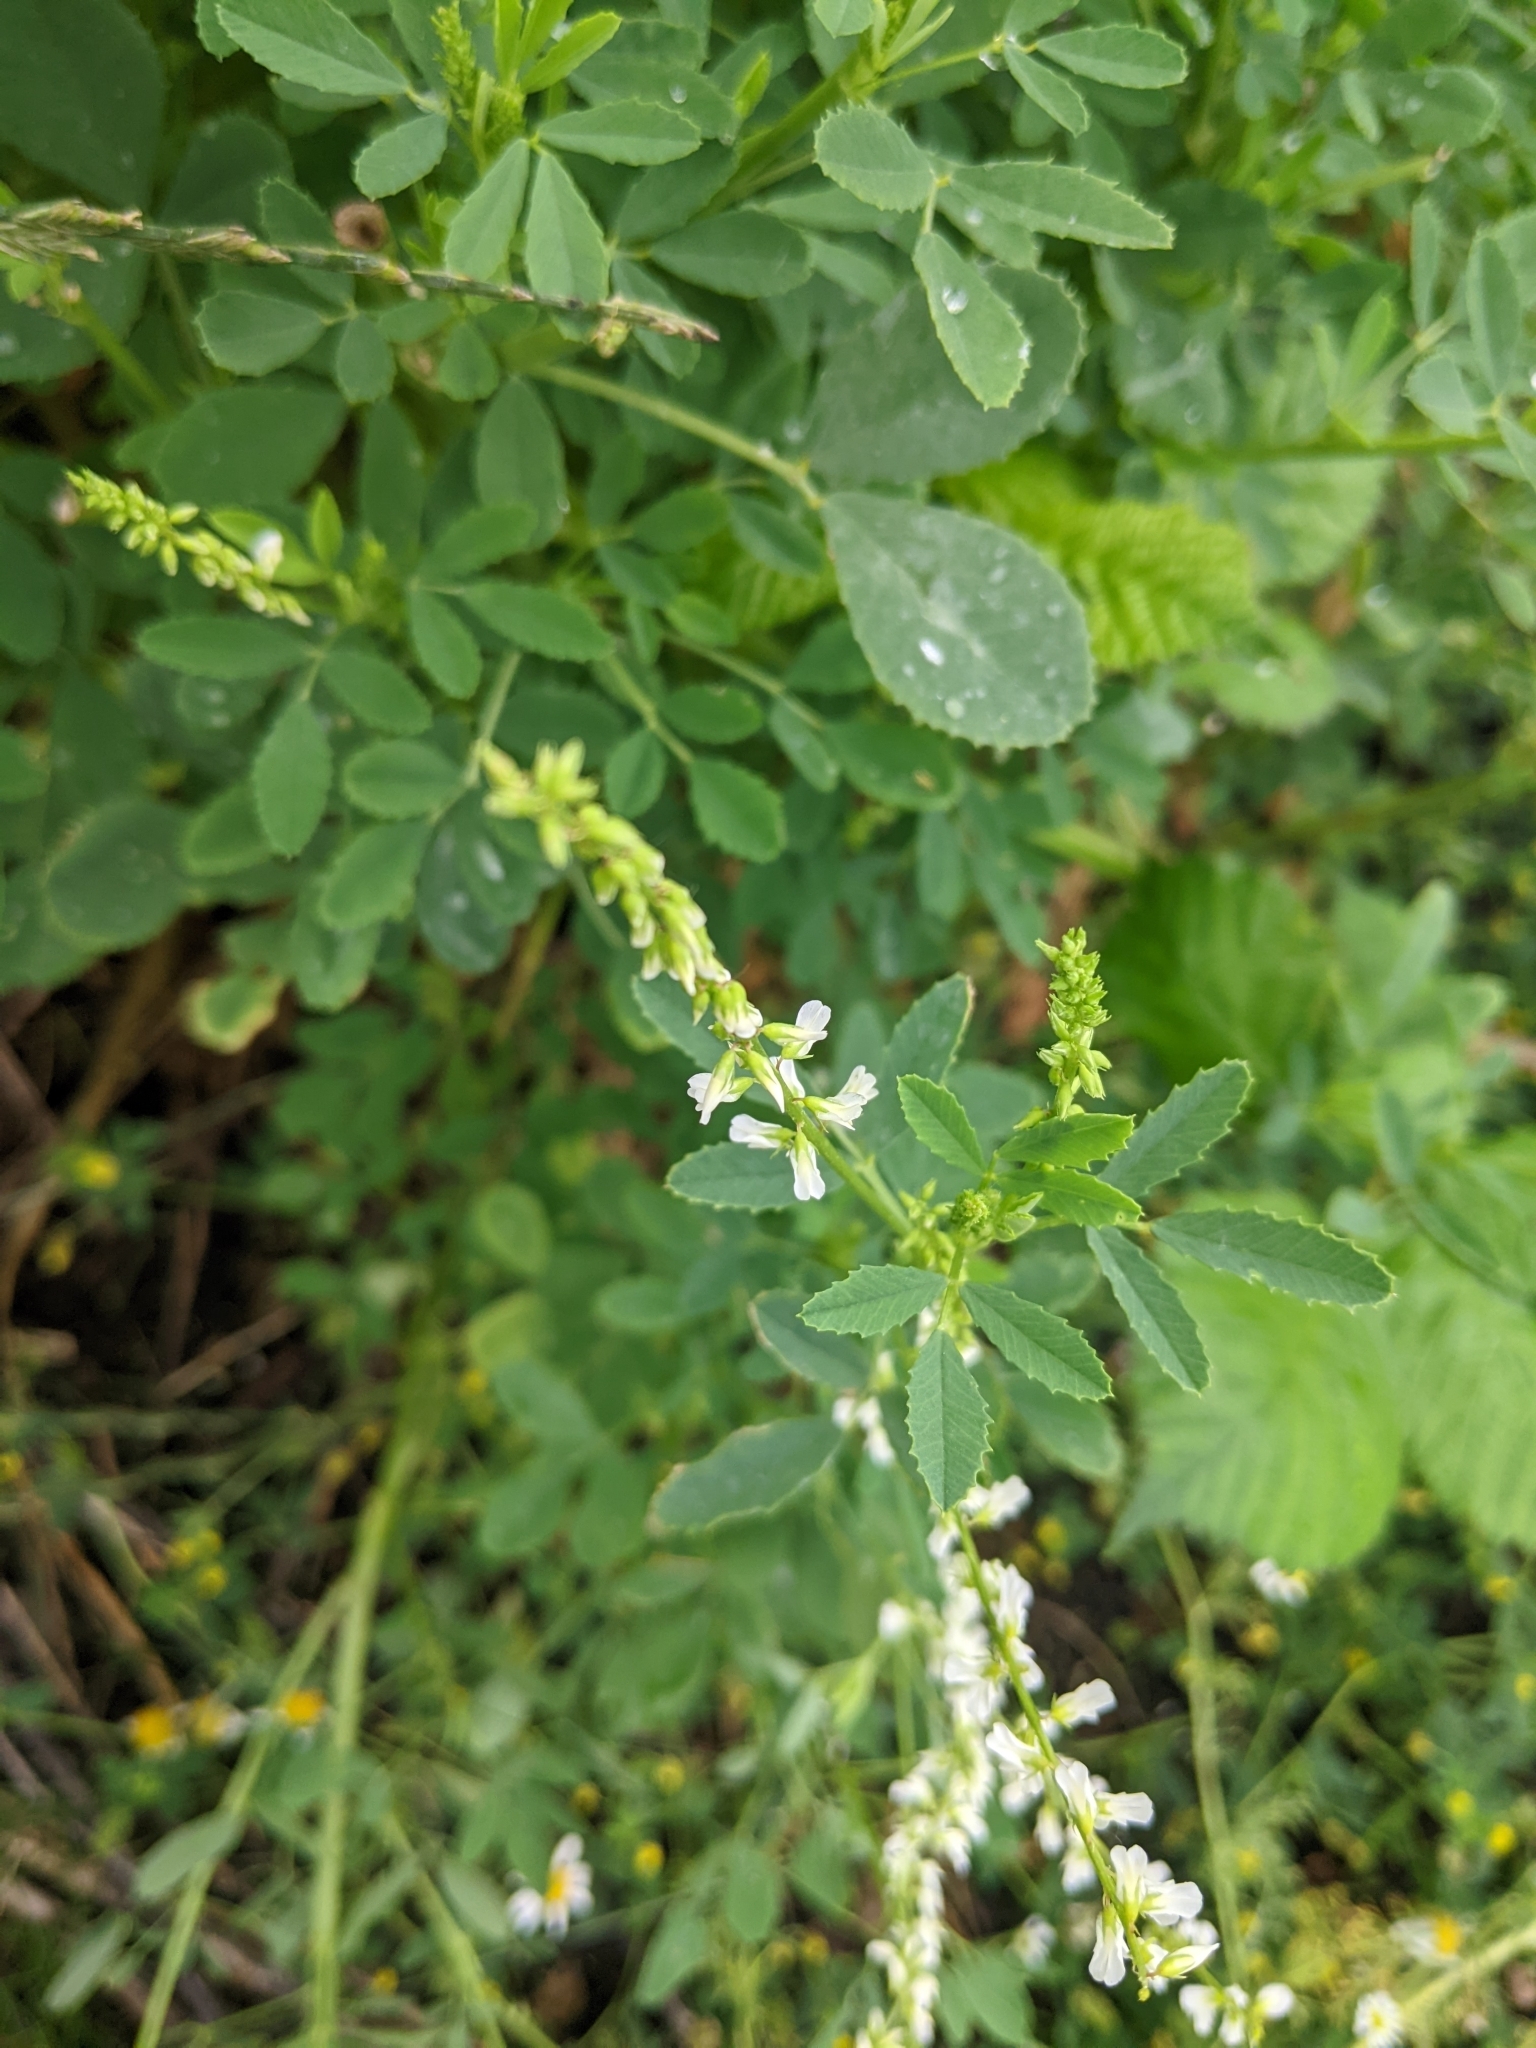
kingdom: Plantae
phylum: Tracheophyta
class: Magnoliopsida
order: Fabales
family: Fabaceae
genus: Melilotus
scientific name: Melilotus albus
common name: White melilot
